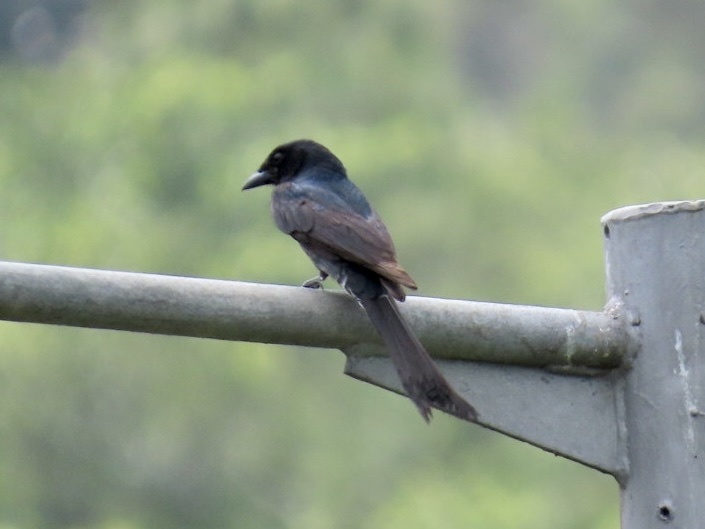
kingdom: Animalia
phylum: Chordata
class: Aves
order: Passeriformes
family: Dicruridae
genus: Dicrurus
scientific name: Dicrurus macrocercus
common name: Black drongo
